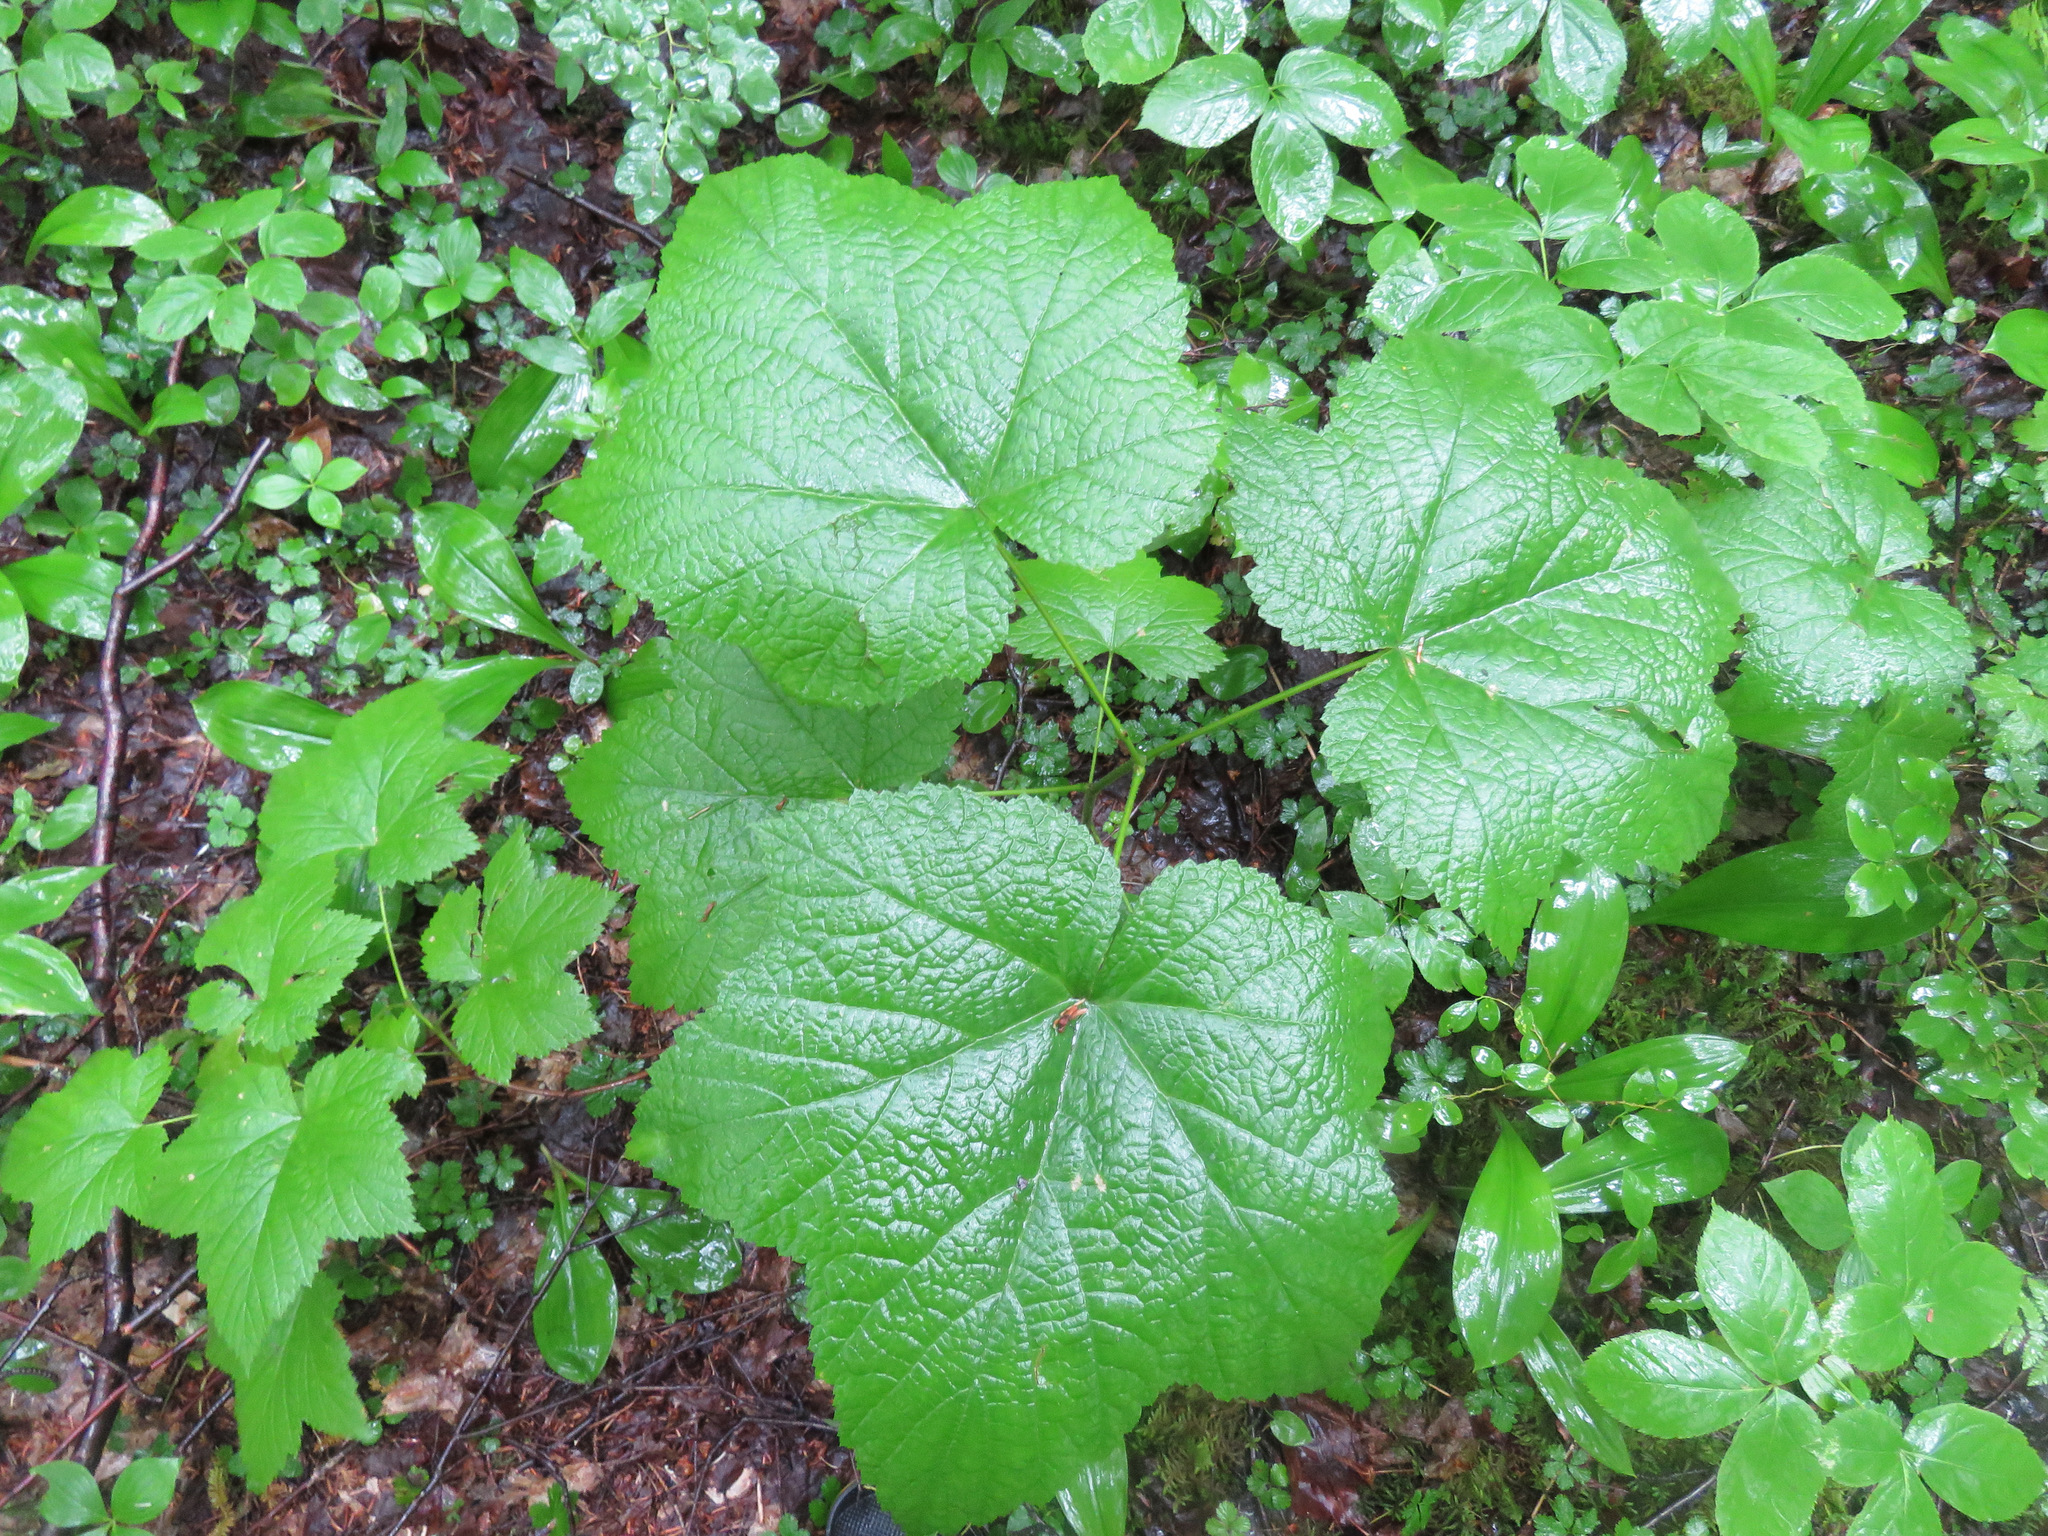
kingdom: Plantae
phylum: Tracheophyta
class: Magnoliopsida
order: Rosales
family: Rosaceae
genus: Rubus
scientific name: Rubus parviflorus
